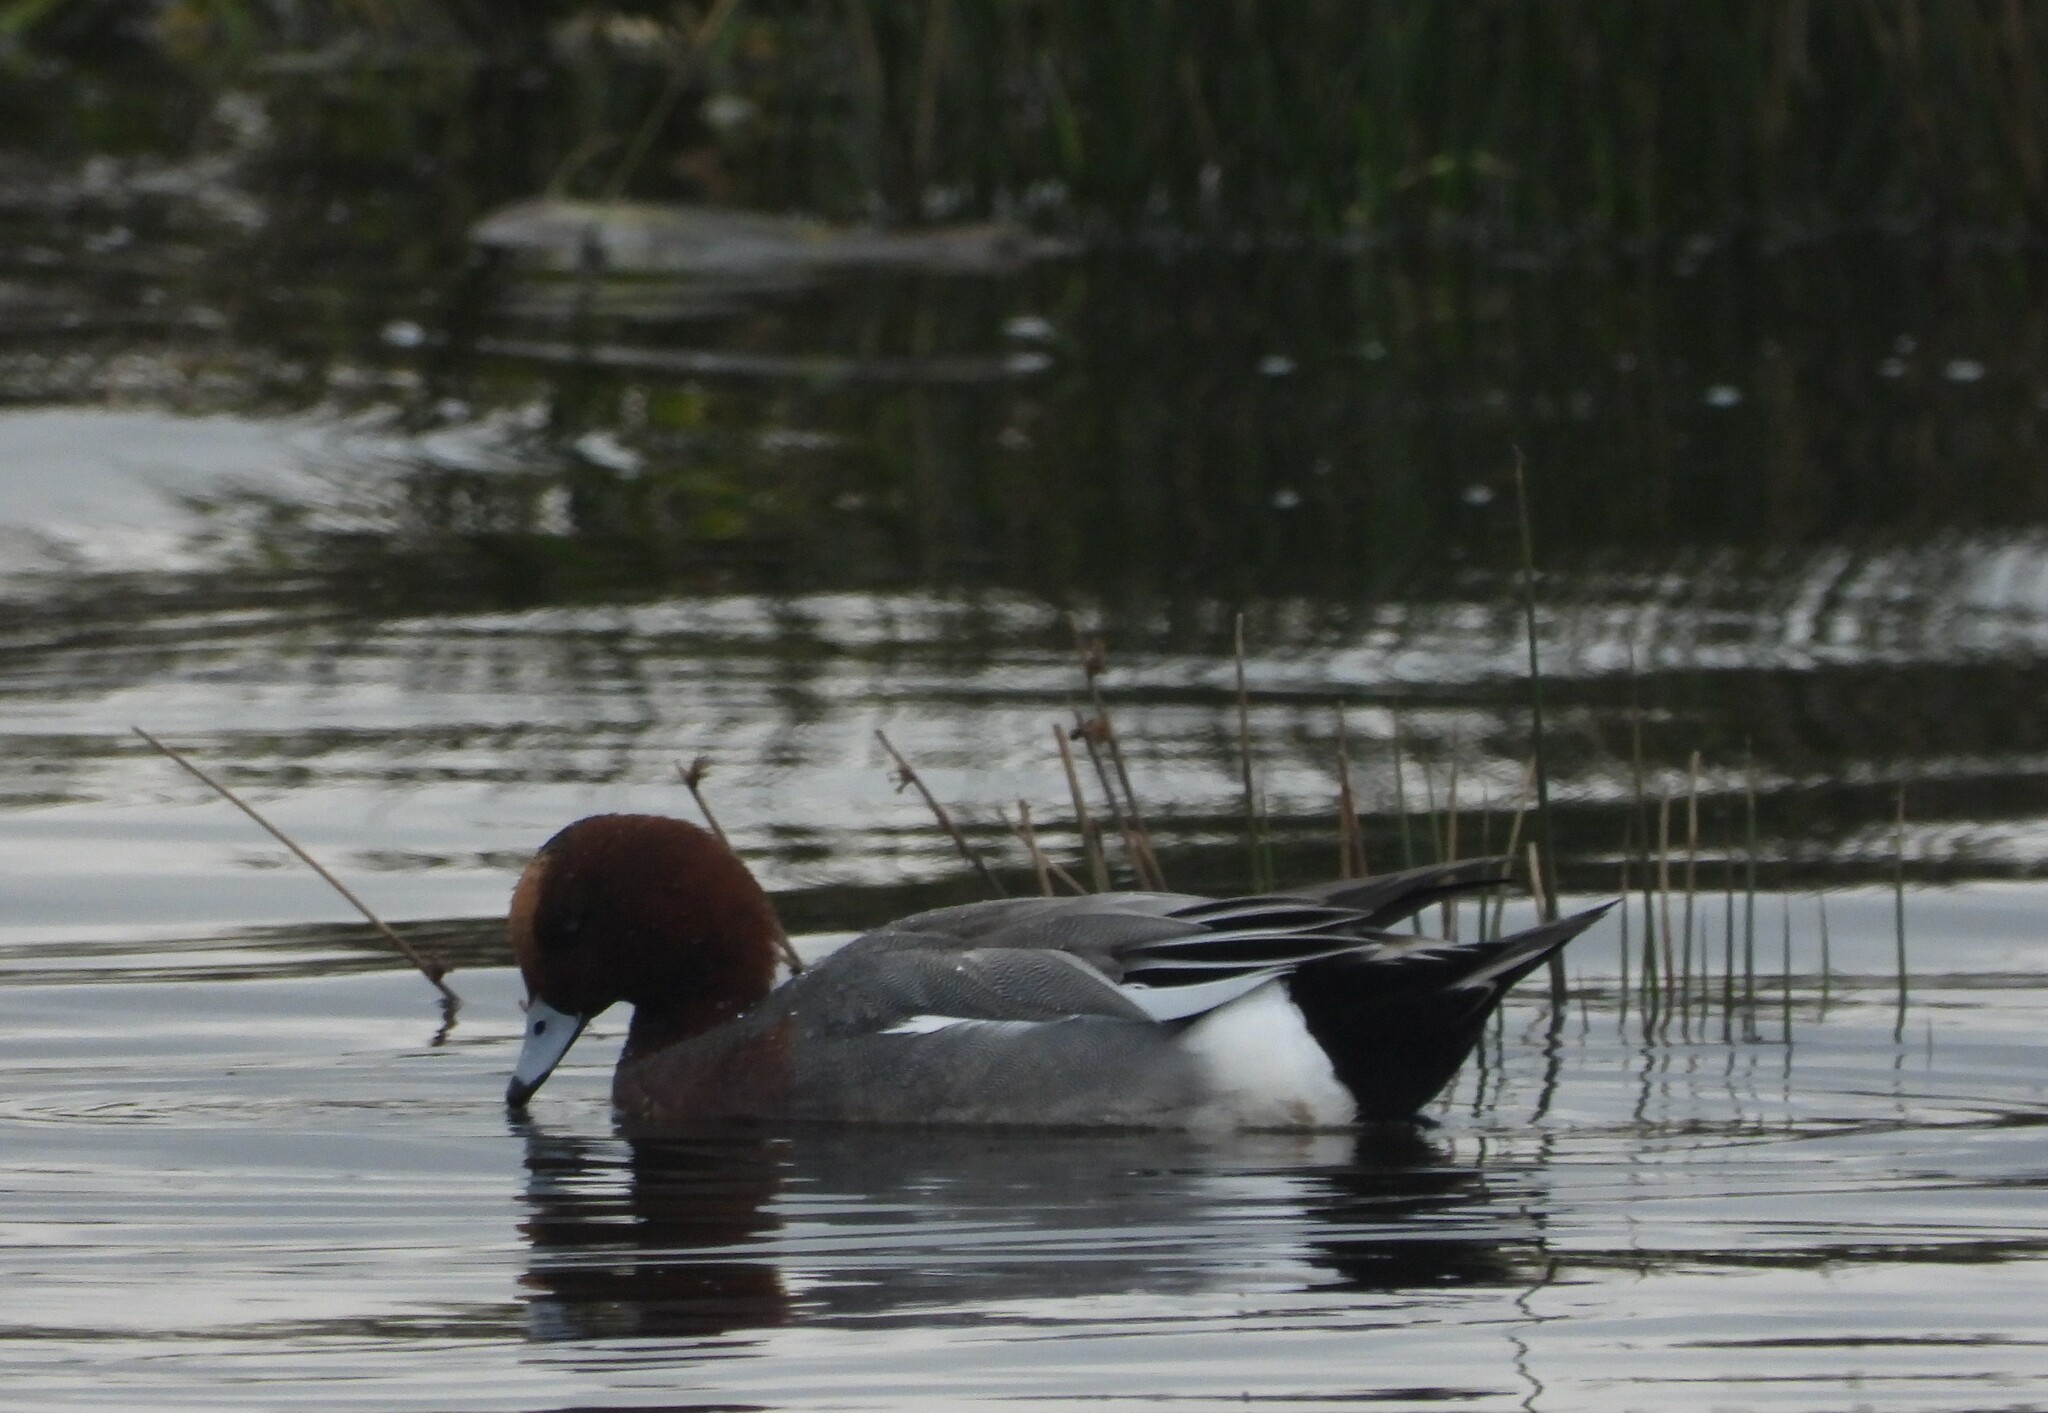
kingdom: Animalia
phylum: Chordata
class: Aves
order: Anseriformes
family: Anatidae
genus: Mareca
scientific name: Mareca penelope
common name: Eurasian wigeon
